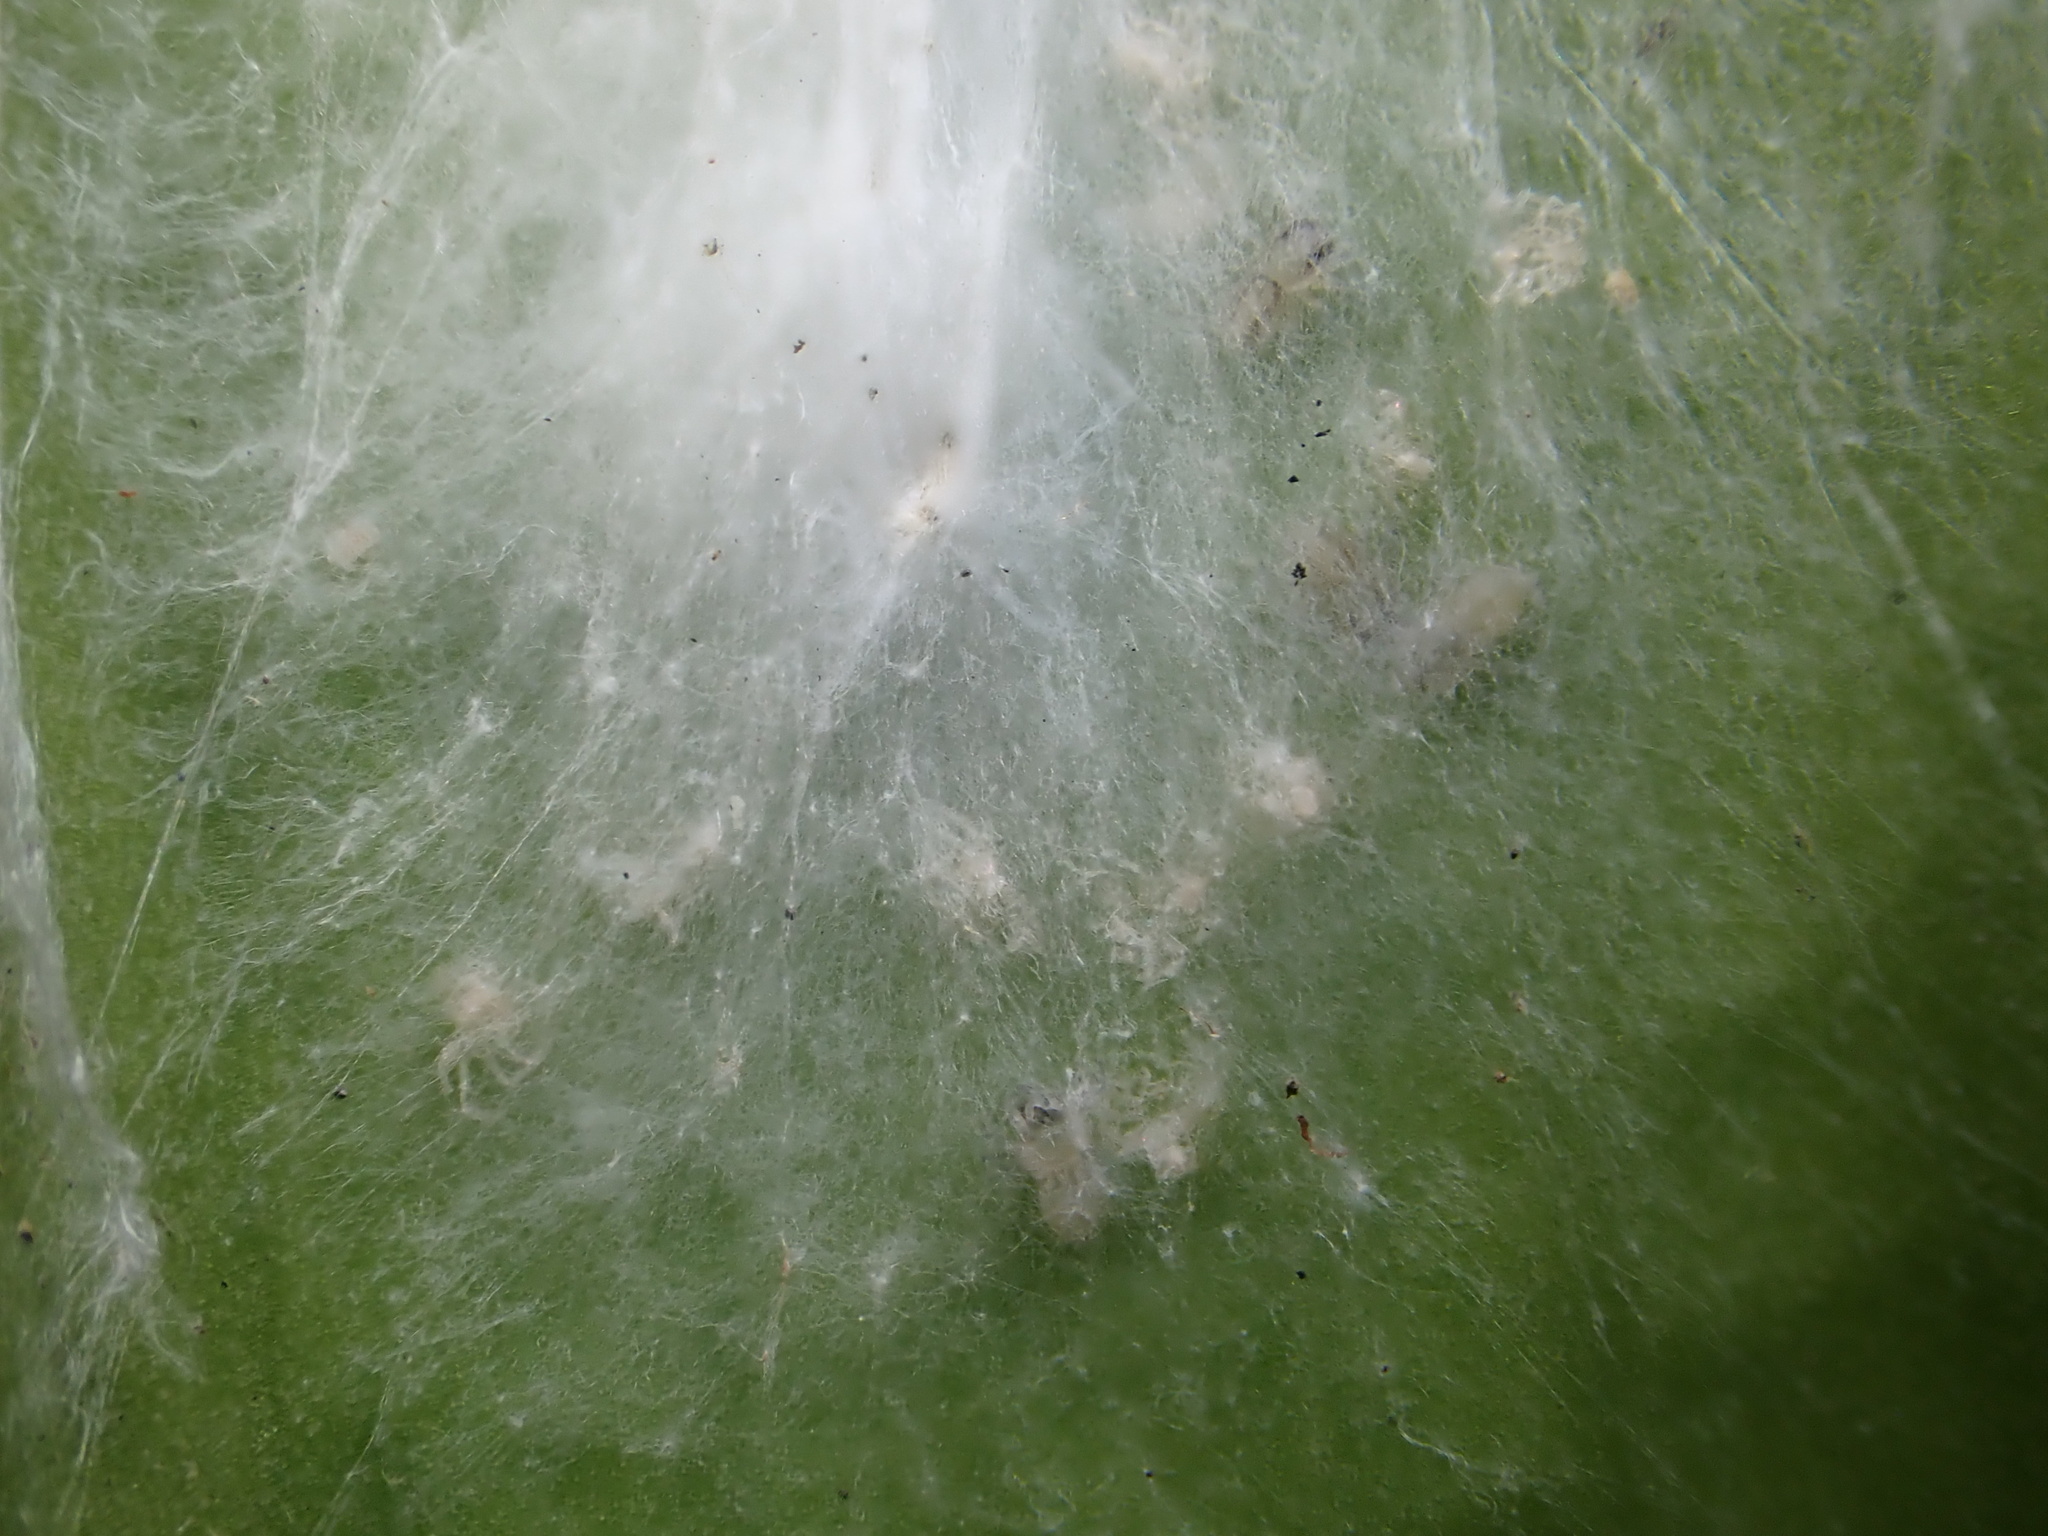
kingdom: Animalia
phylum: Arthropoda
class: Arachnida
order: Araneae
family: Salticidae
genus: Helpis
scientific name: Helpis minitabunda
